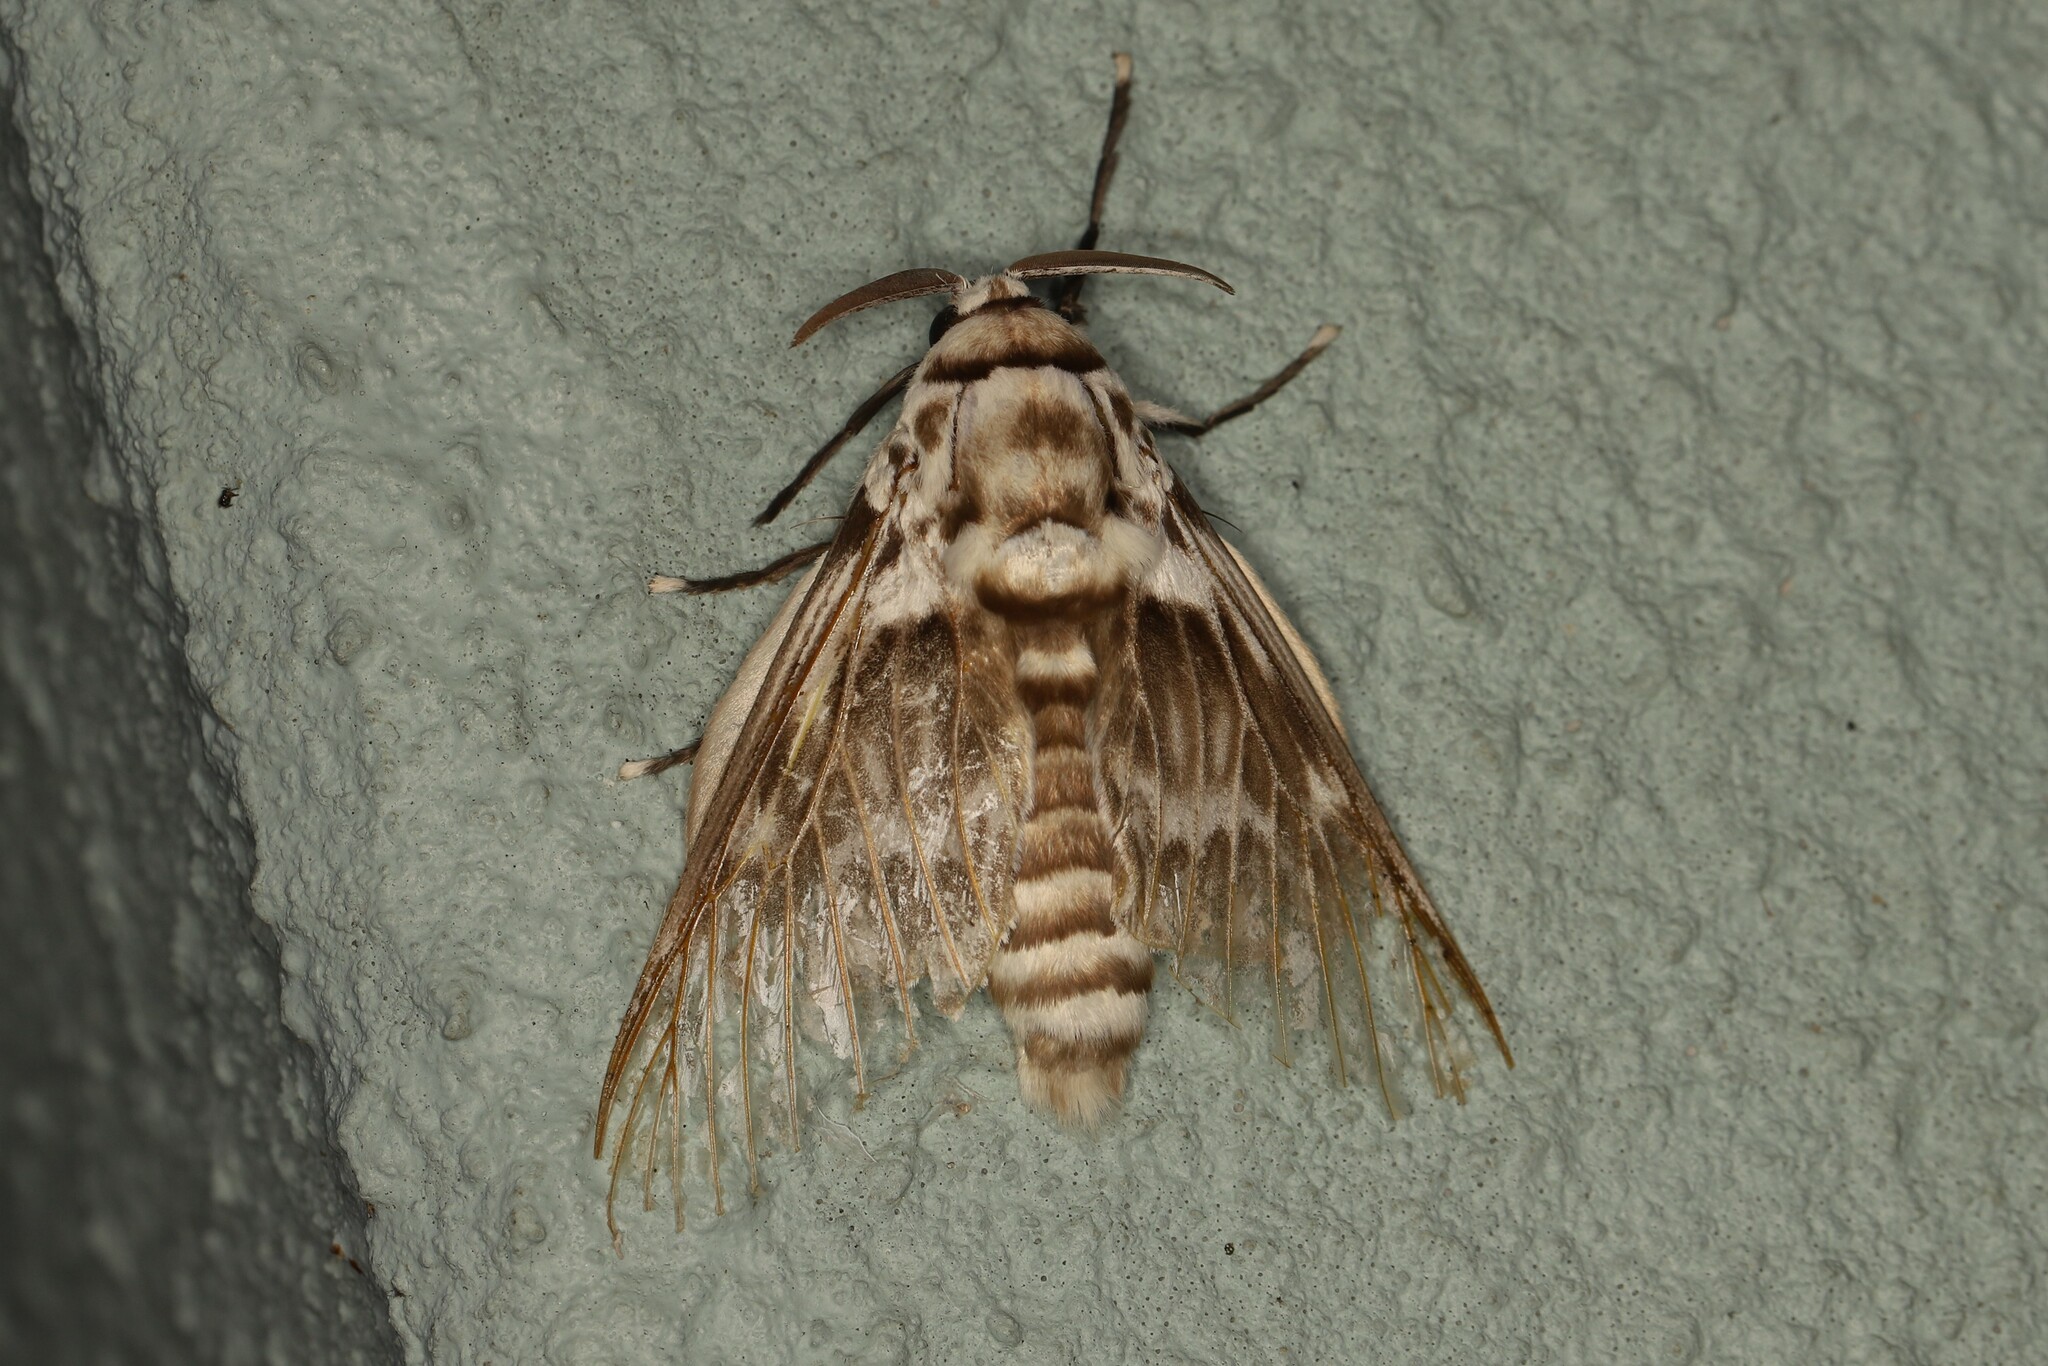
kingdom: Animalia
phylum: Arthropoda
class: Insecta
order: Lepidoptera
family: Megalopygidae
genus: Podalia
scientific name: Podalia orsilochus
